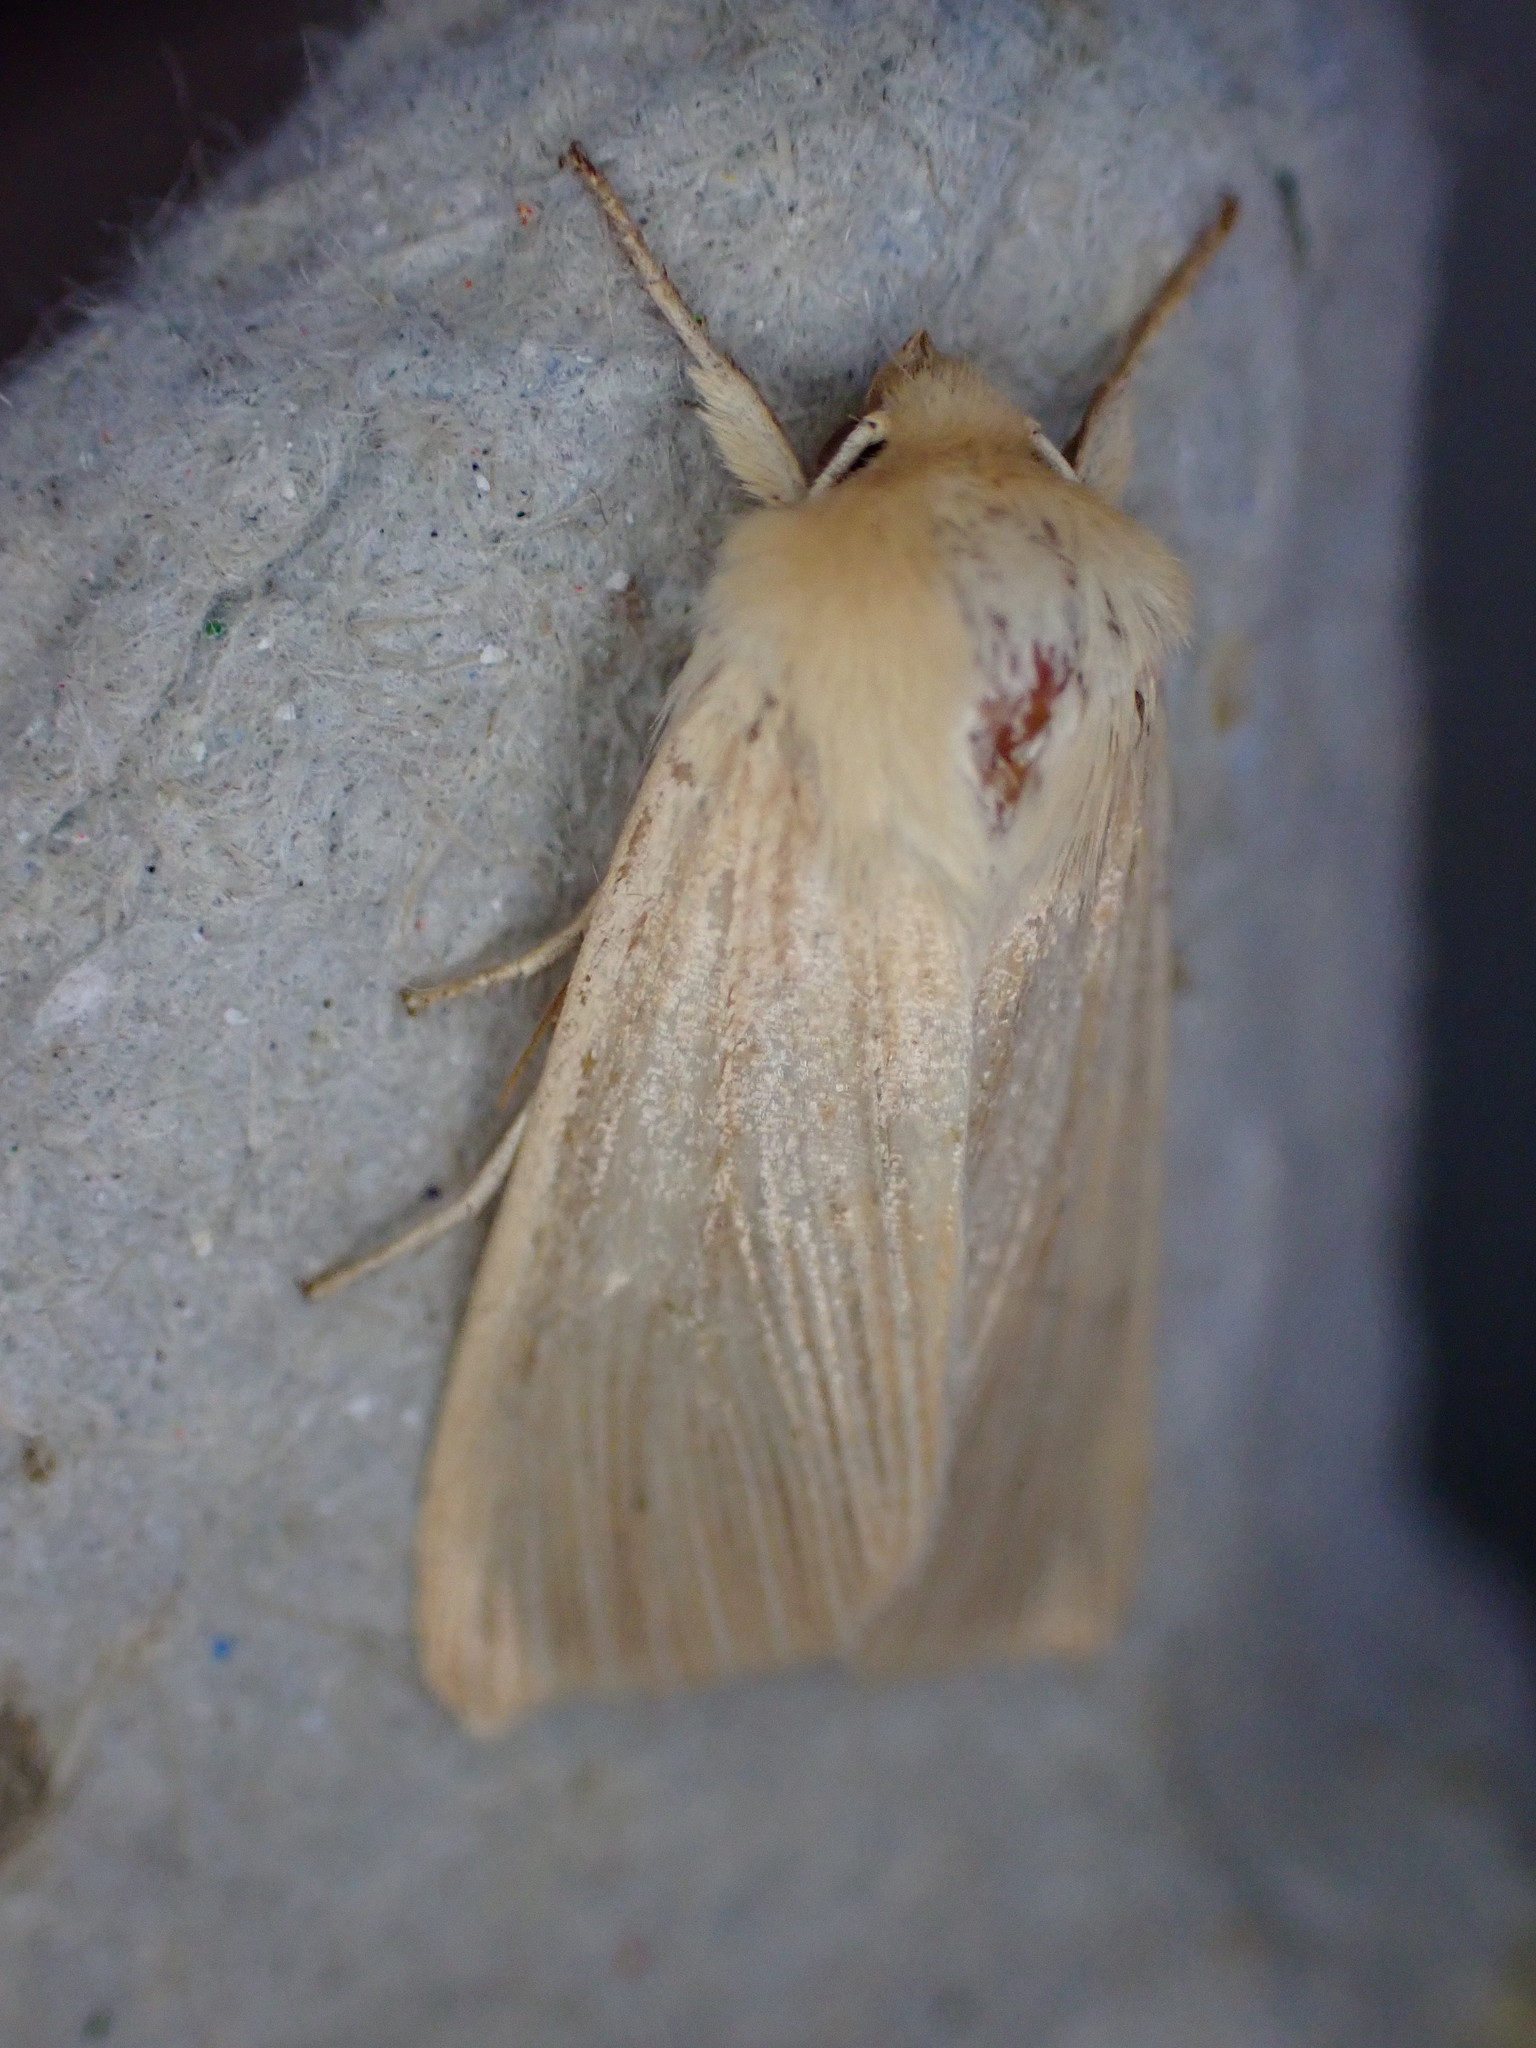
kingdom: Animalia
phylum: Arthropoda
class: Insecta
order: Lepidoptera
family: Noctuidae
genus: Mythimna
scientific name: Mythimna pallens
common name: Common wainscot
